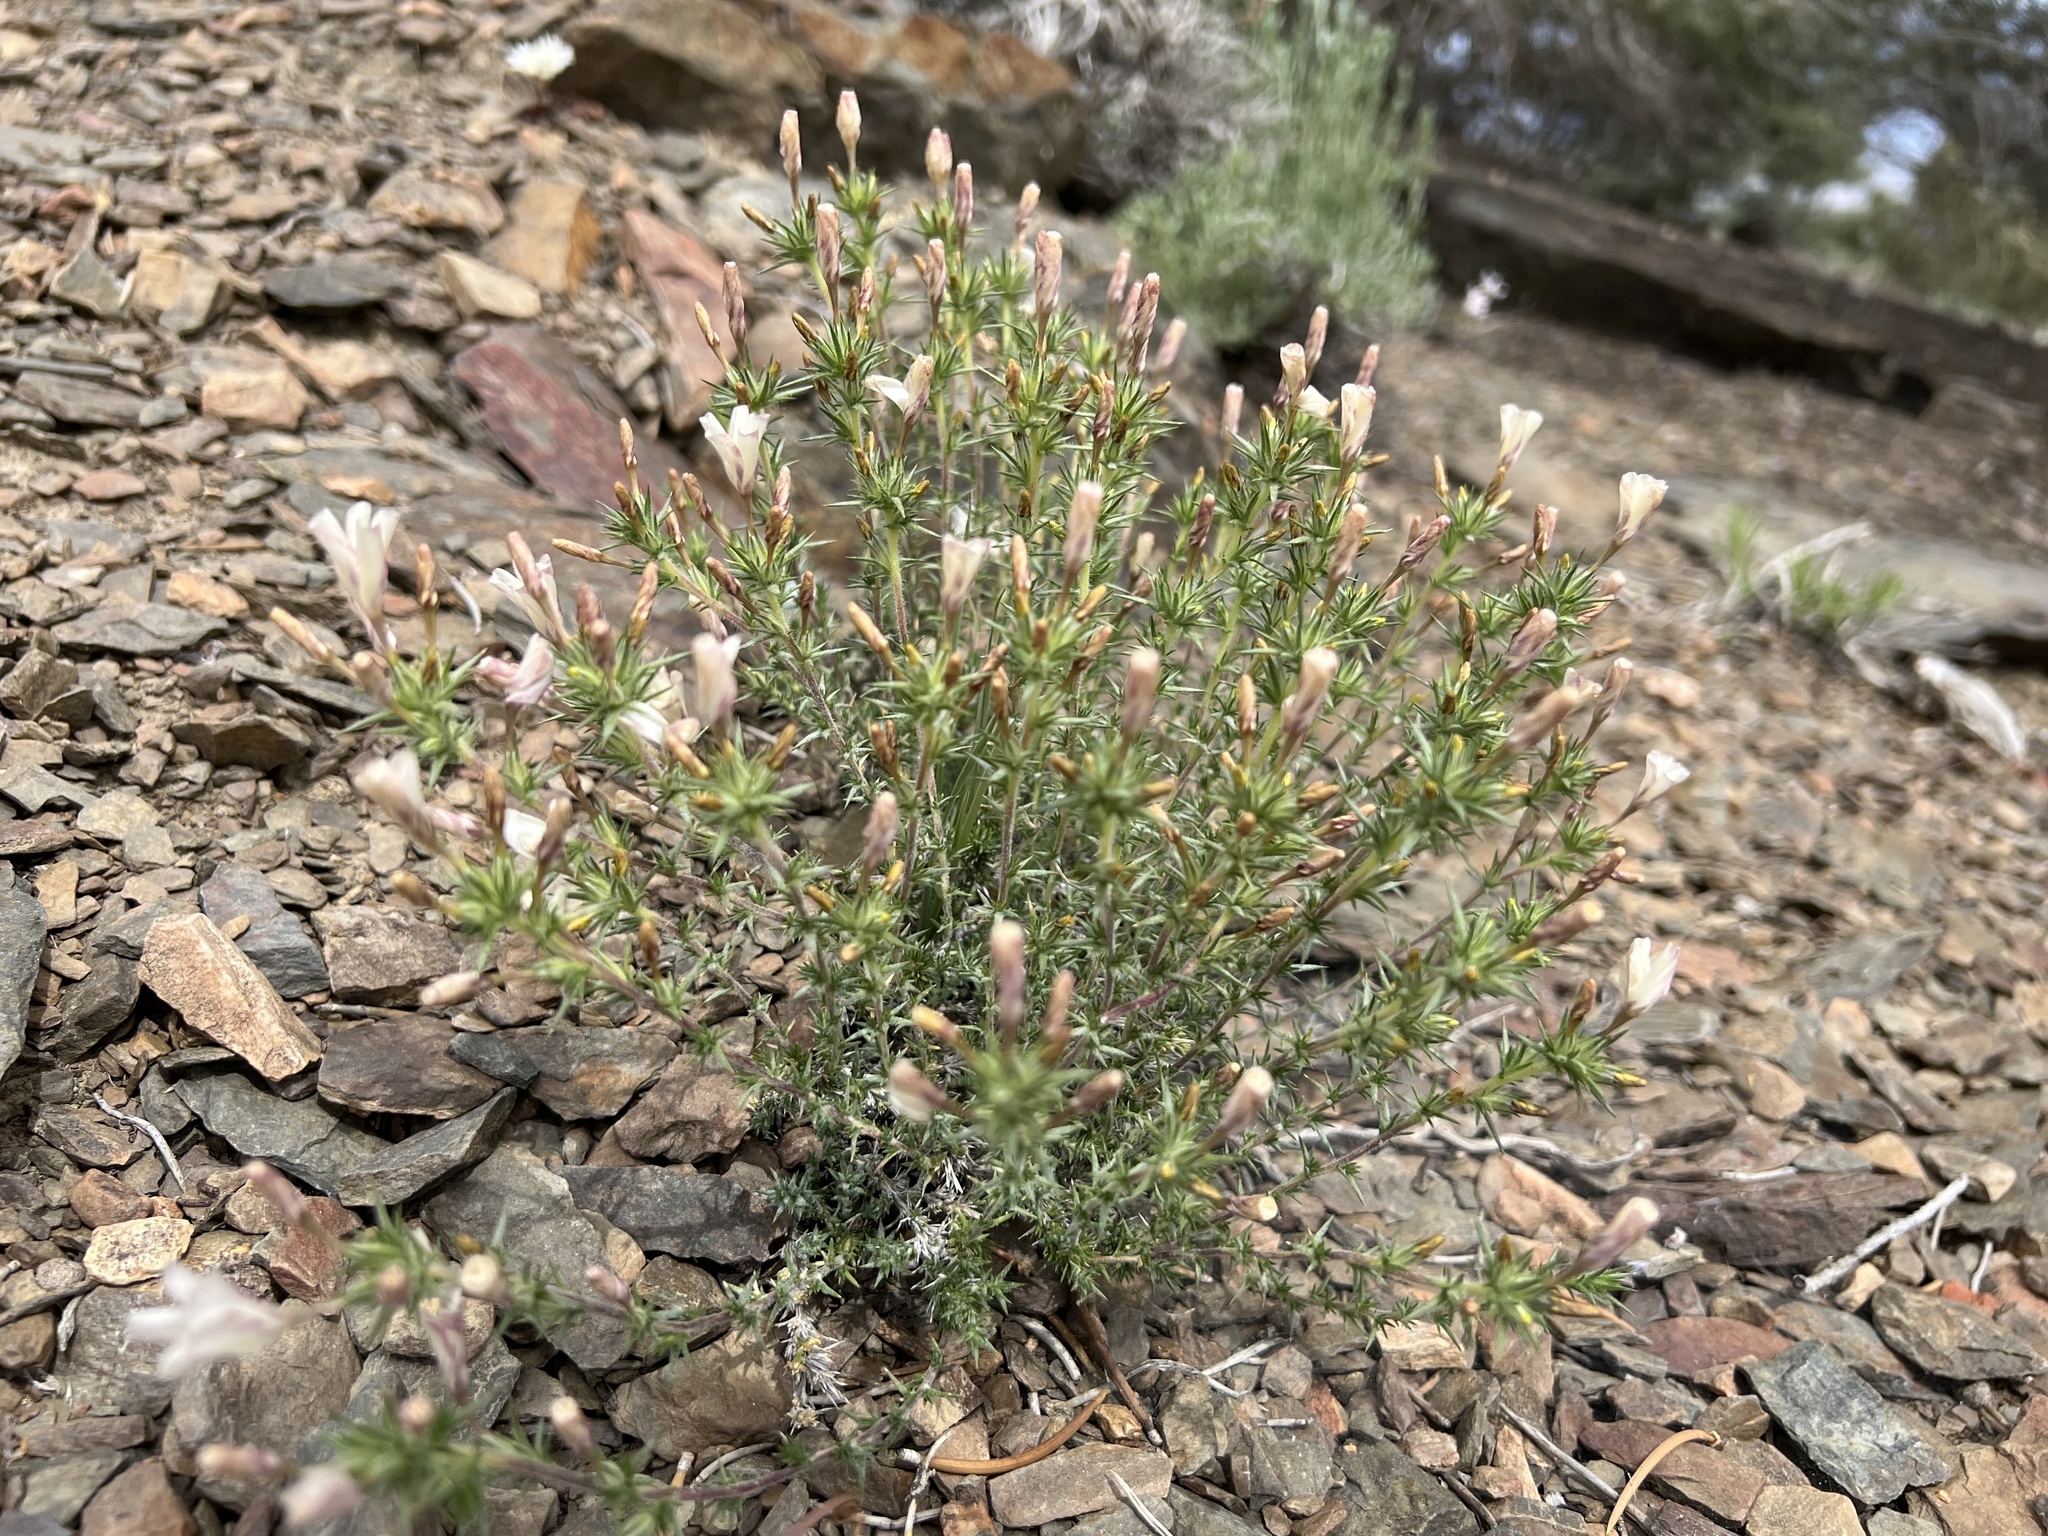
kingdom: Plantae
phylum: Tracheophyta
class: Magnoliopsida
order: Ericales
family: Polemoniaceae
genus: Linanthus
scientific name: Linanthus pungens
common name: Granite prickly phlox
